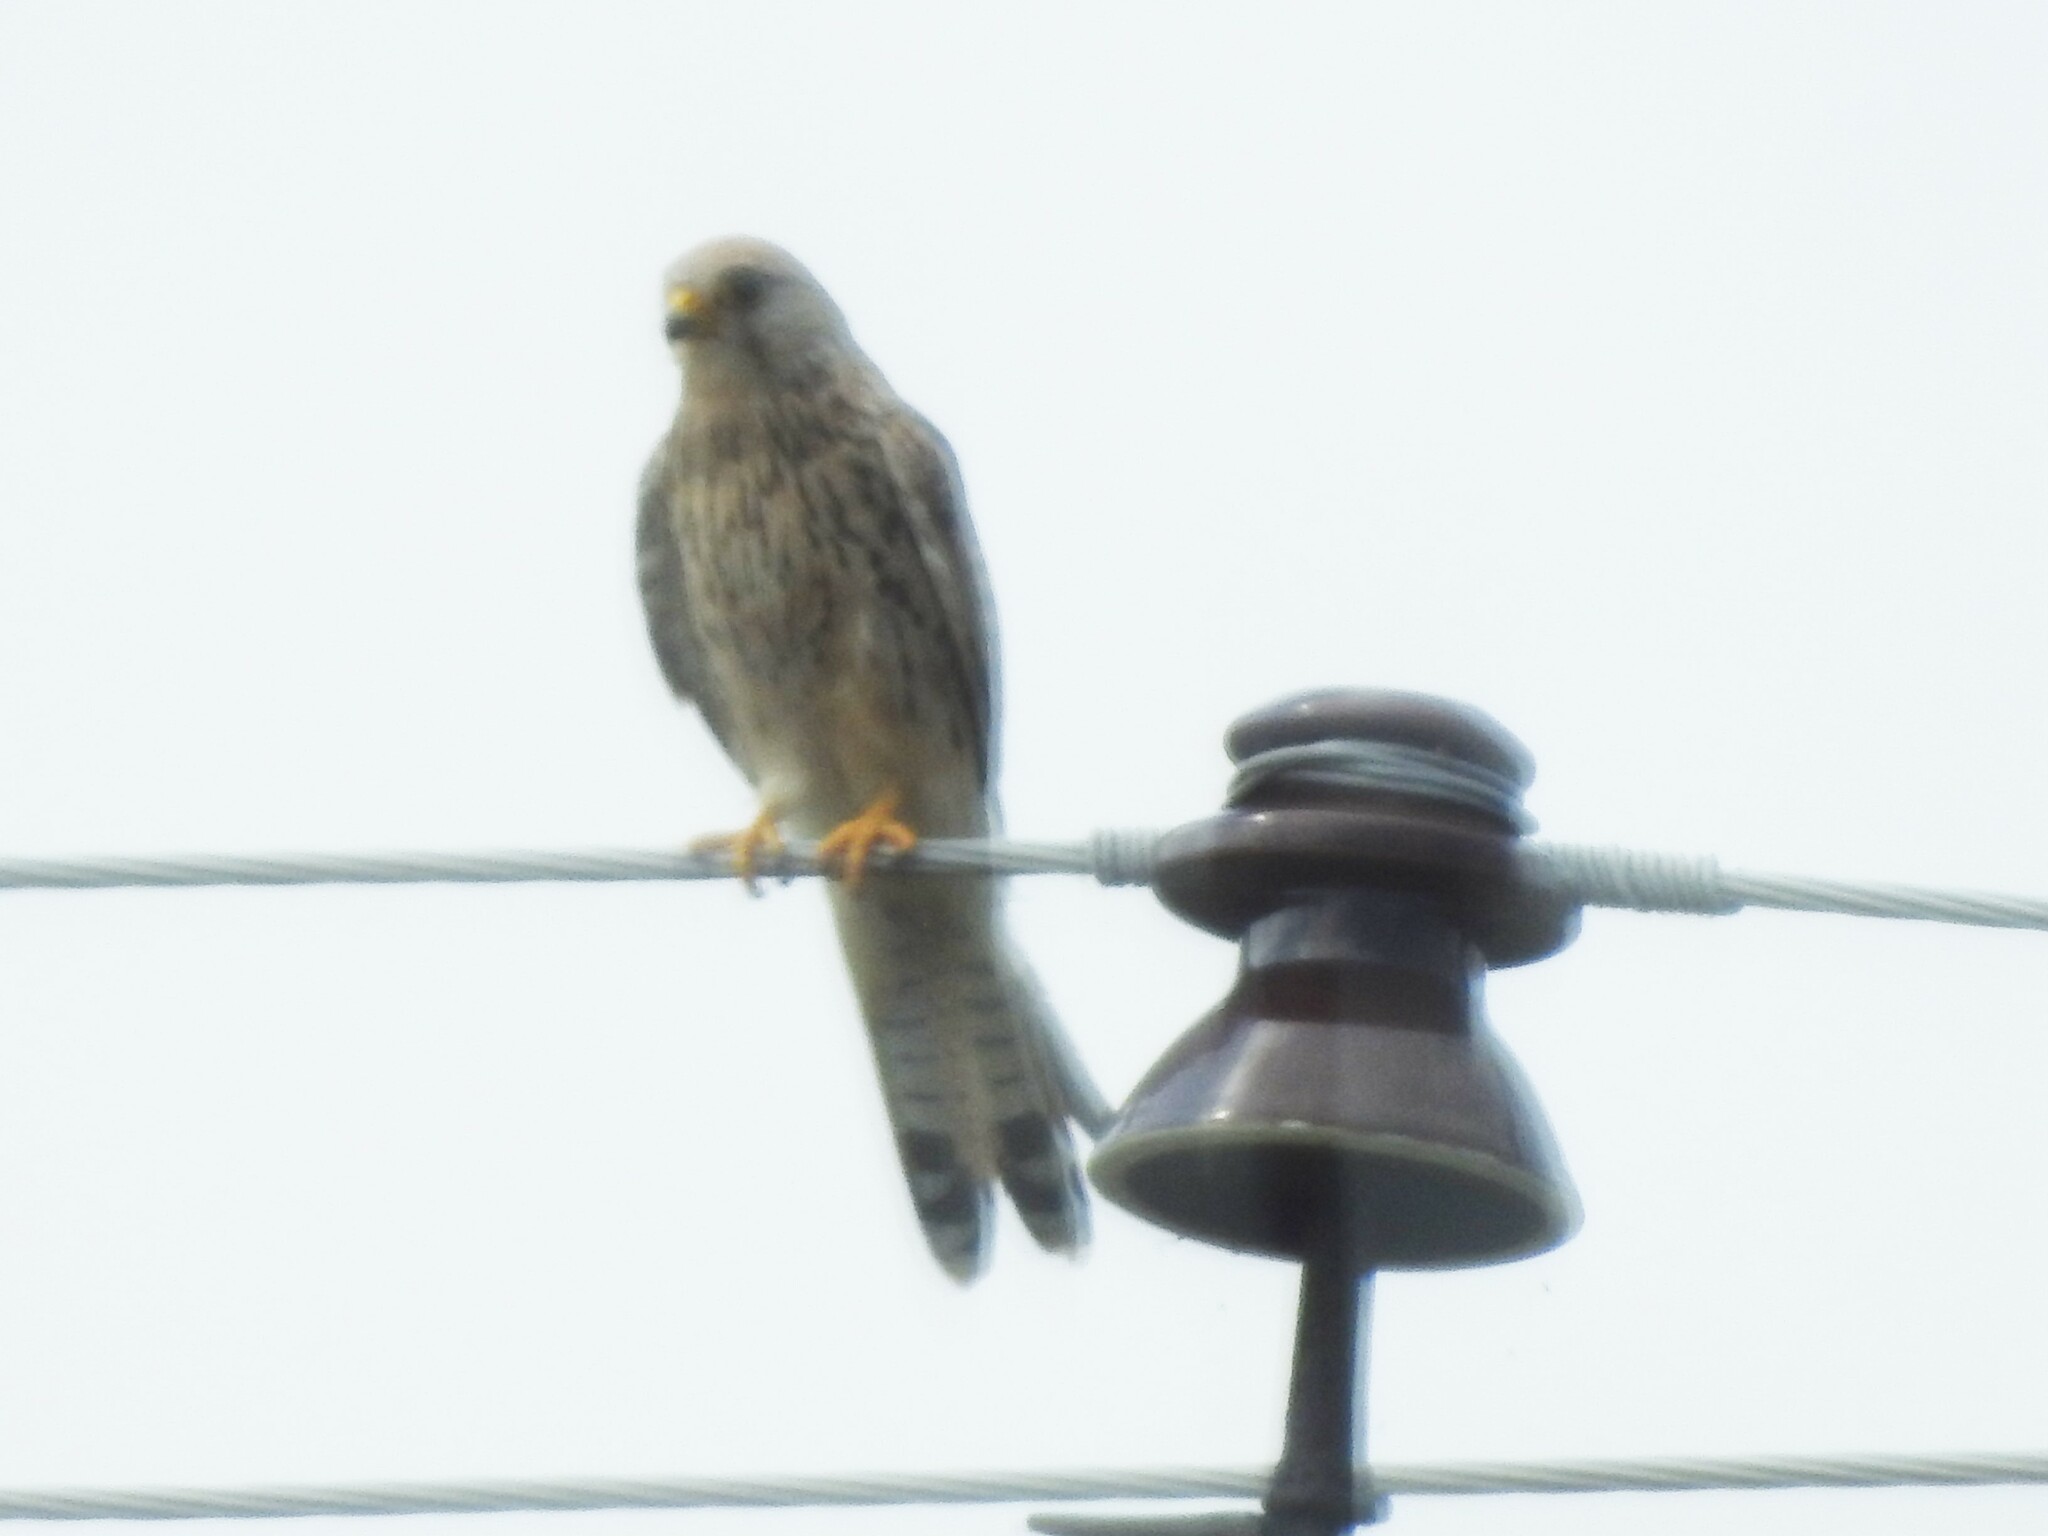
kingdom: Animalia
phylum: Chordata
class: Aves
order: Falconiformes
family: Falconidae
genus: Falco
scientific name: Falco tinnunculus
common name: Common kestrel
